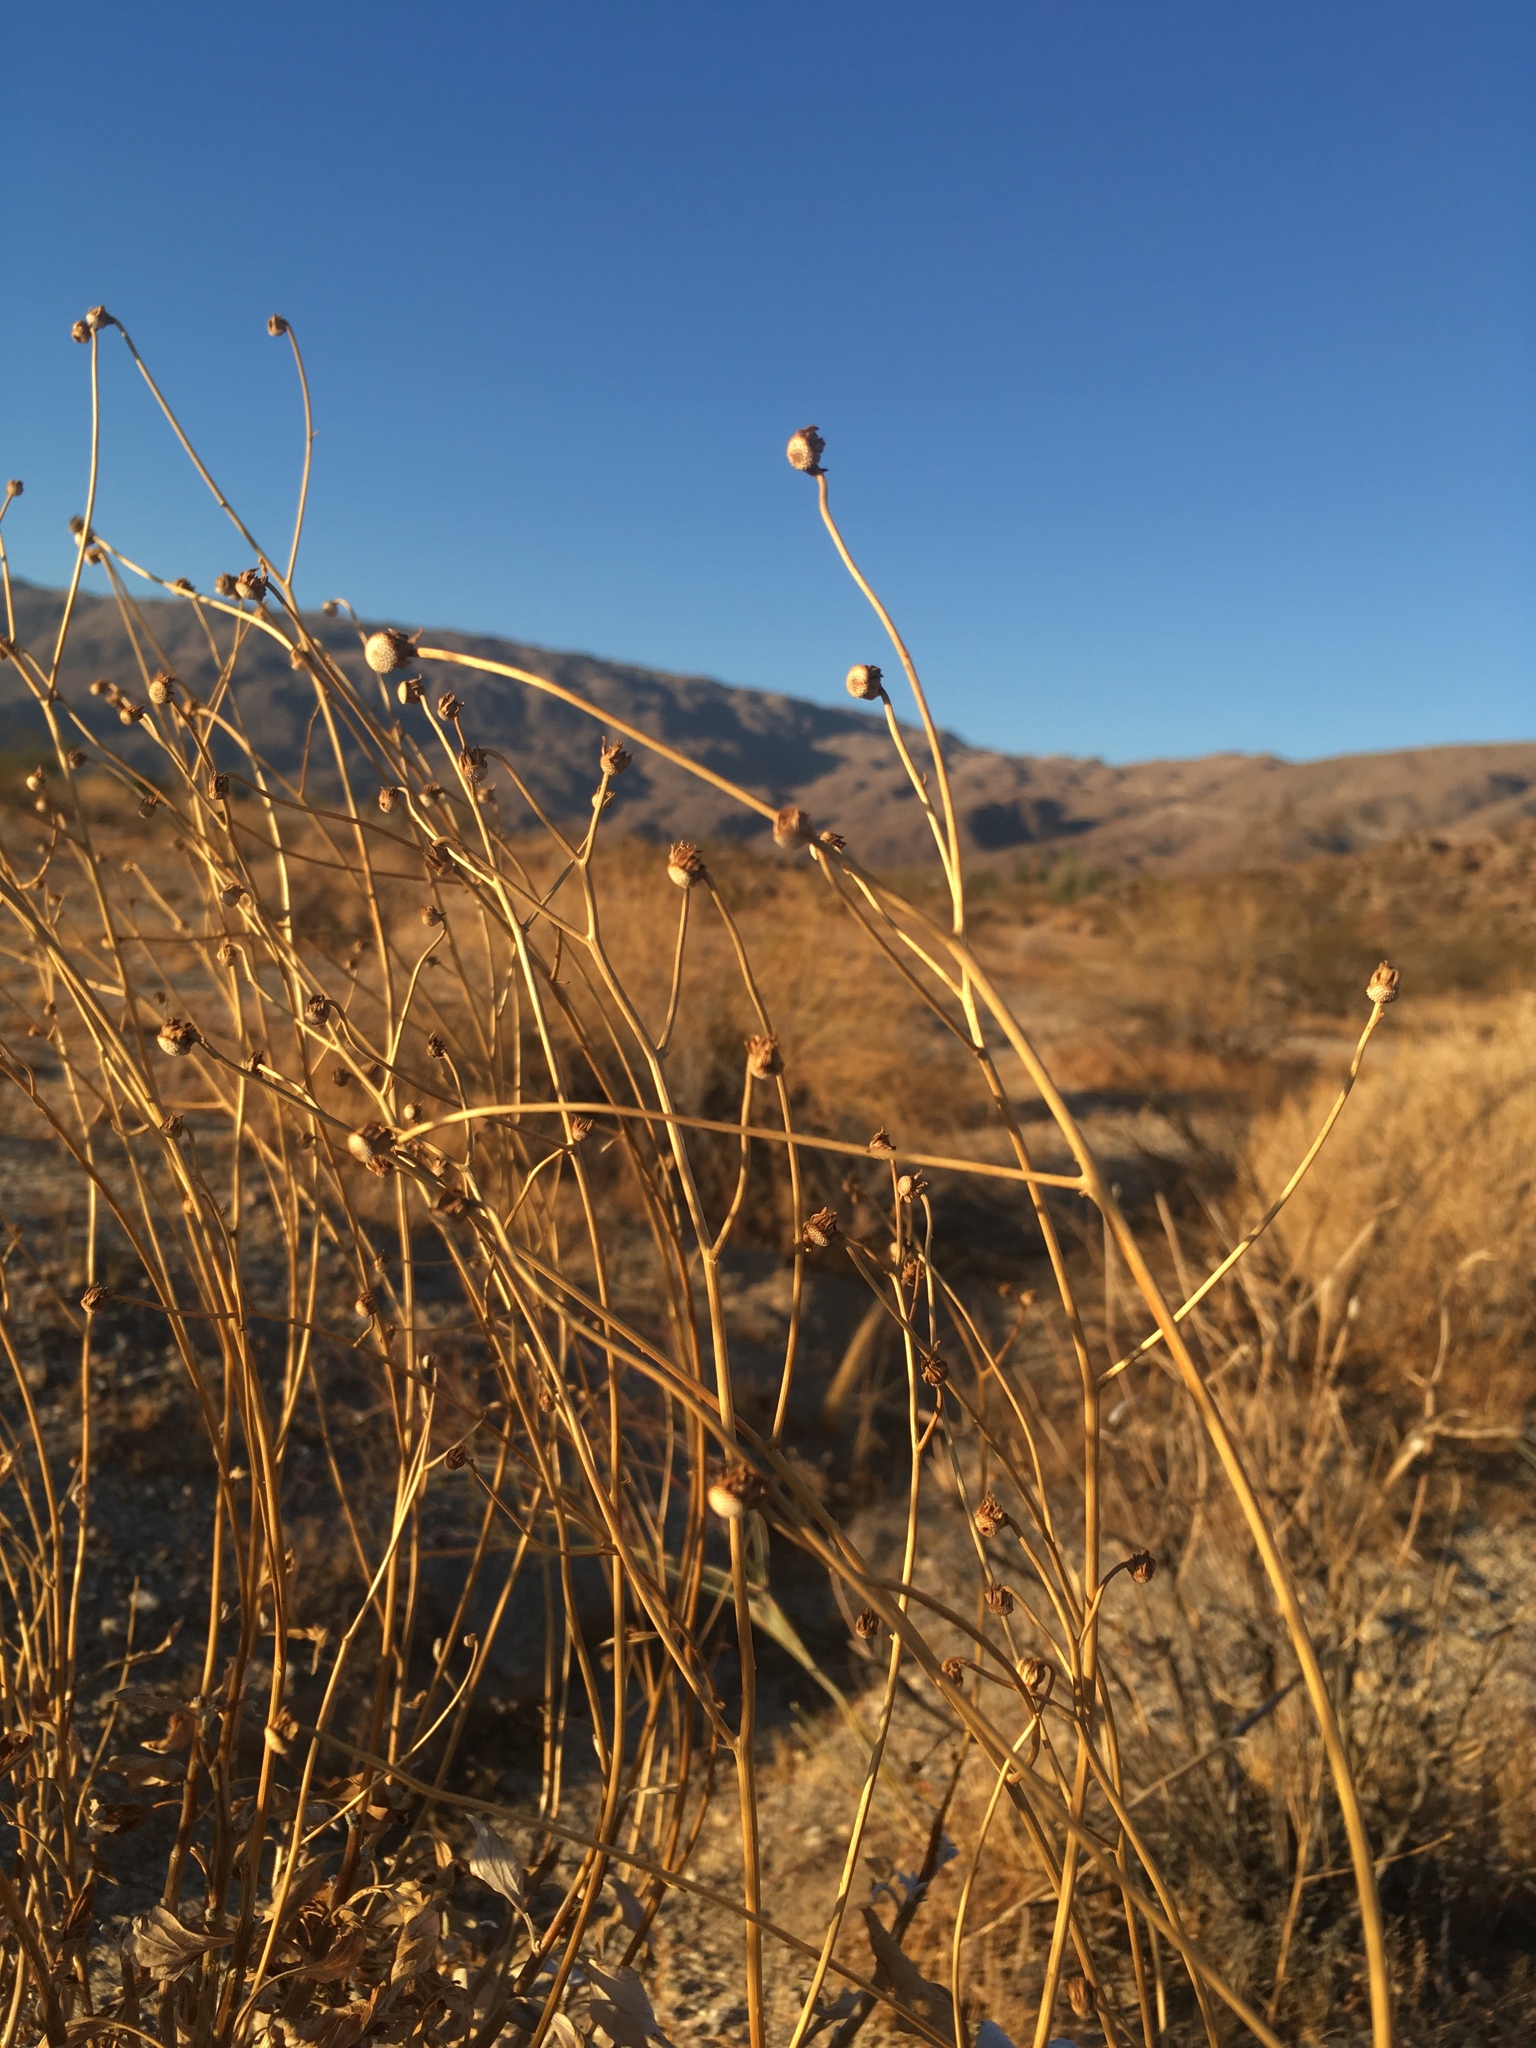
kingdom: Plantae
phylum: Tracheophyta
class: Magnoliopsida
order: Asterales
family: Asteraceae
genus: Encelia
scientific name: Encelia farinosa
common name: Brittlebush
